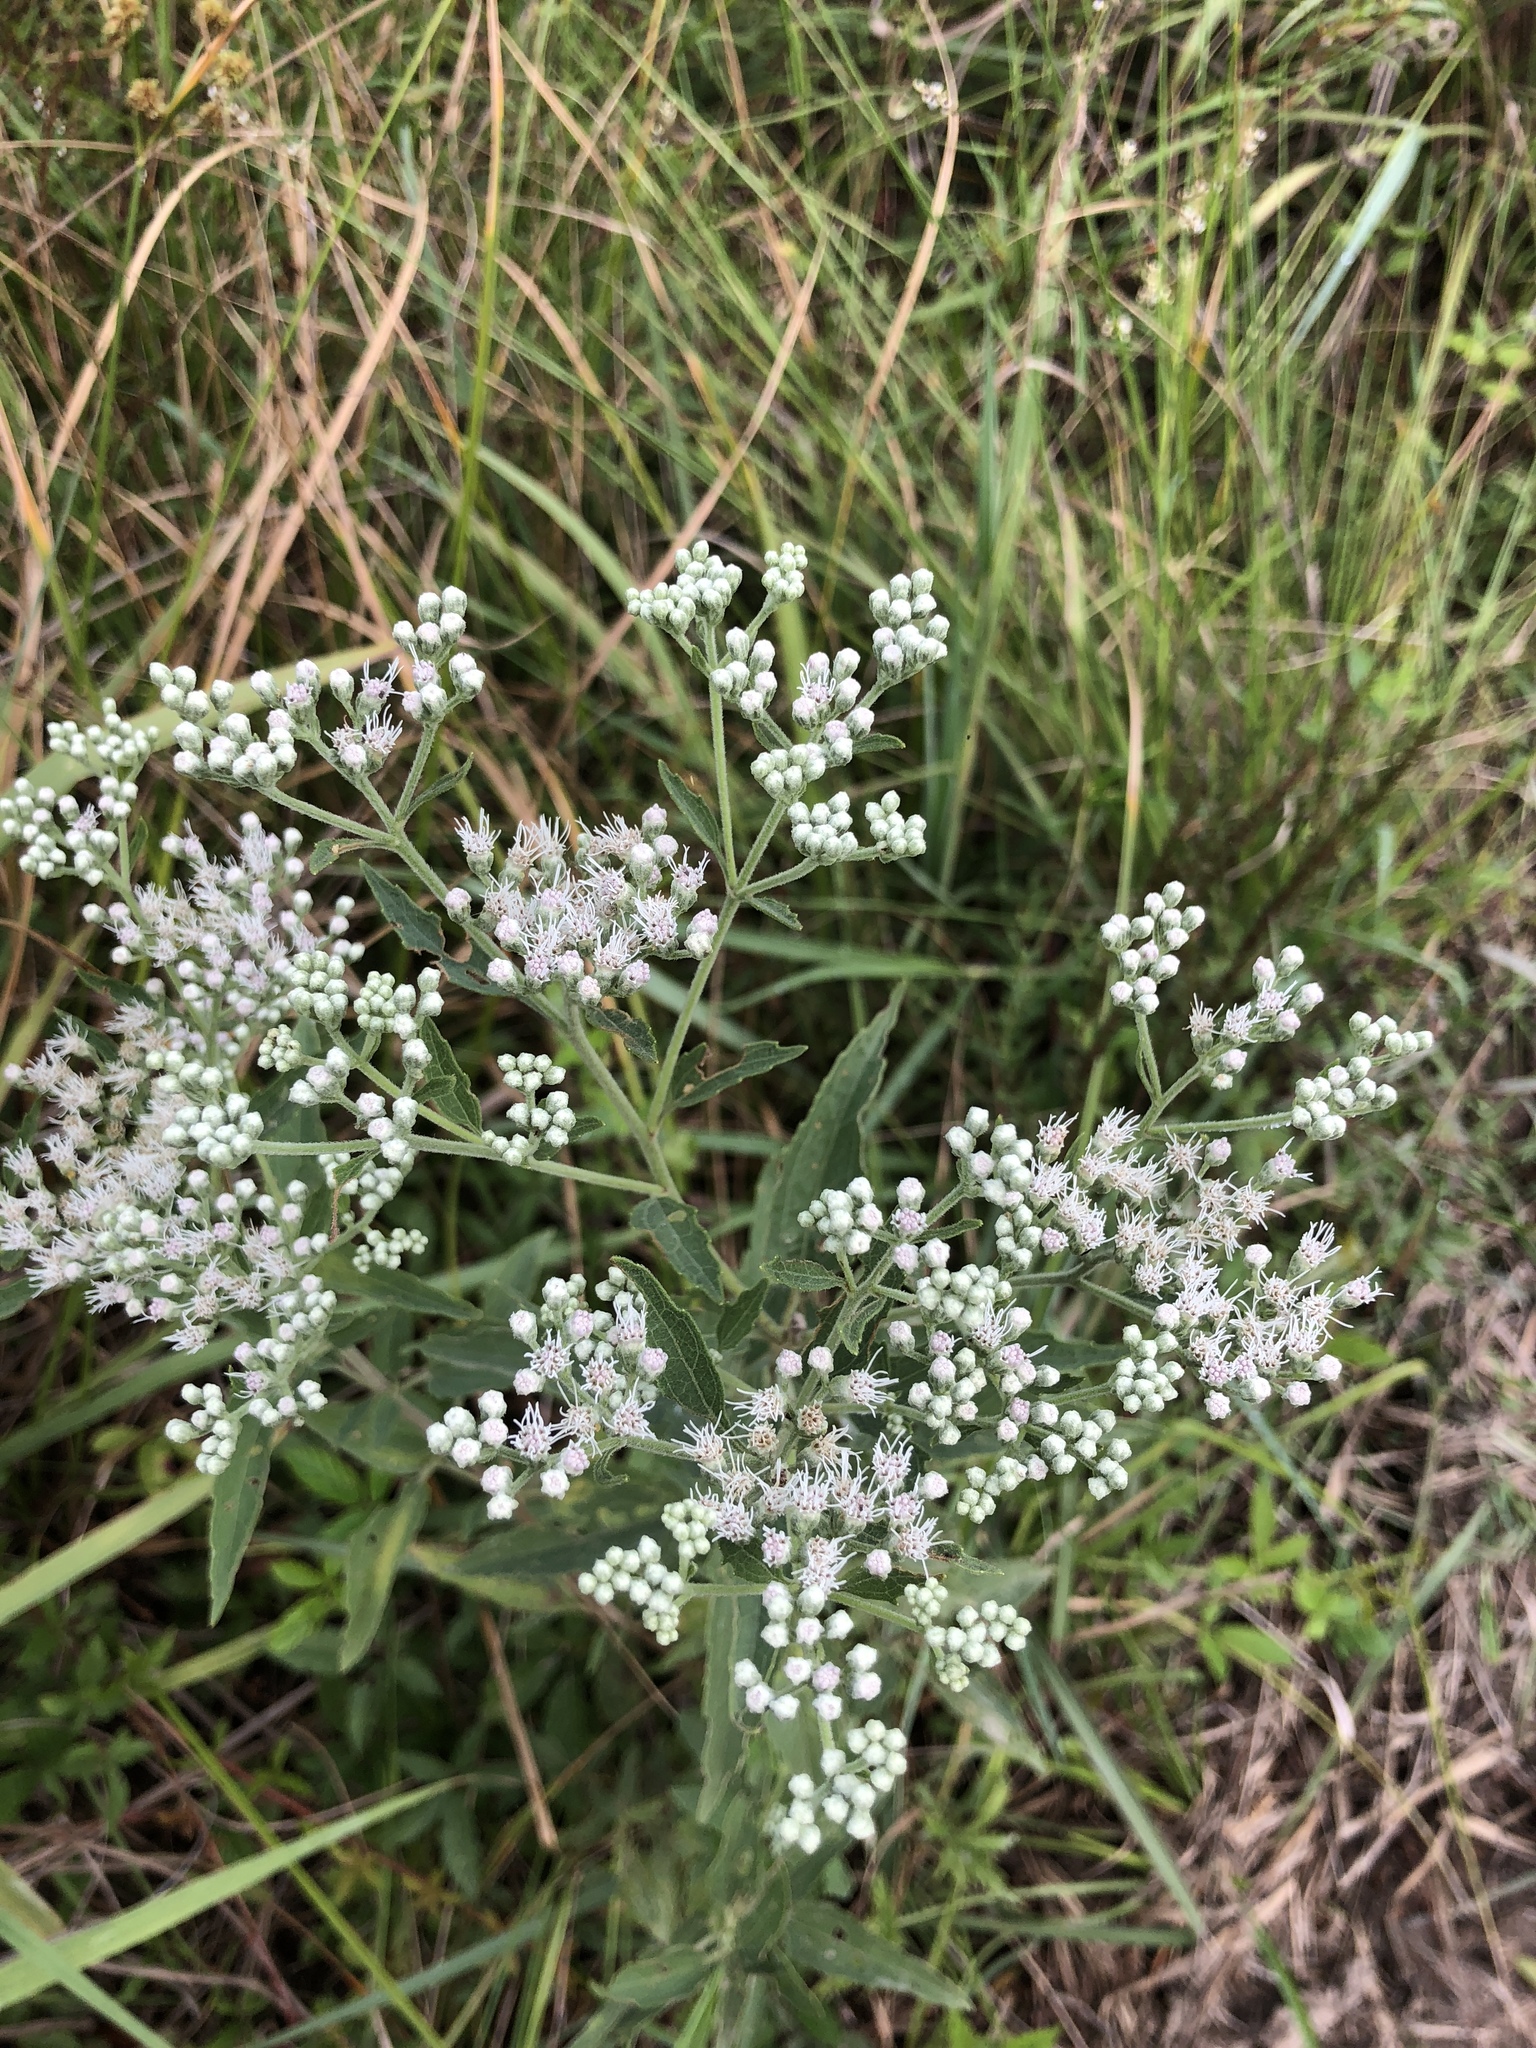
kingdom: Plantae
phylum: Tracheophyta
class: Magnoliopsida
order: Asterales
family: Asteraceae
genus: Eupatorium
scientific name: Eupatorium serotinum
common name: Late boneset
